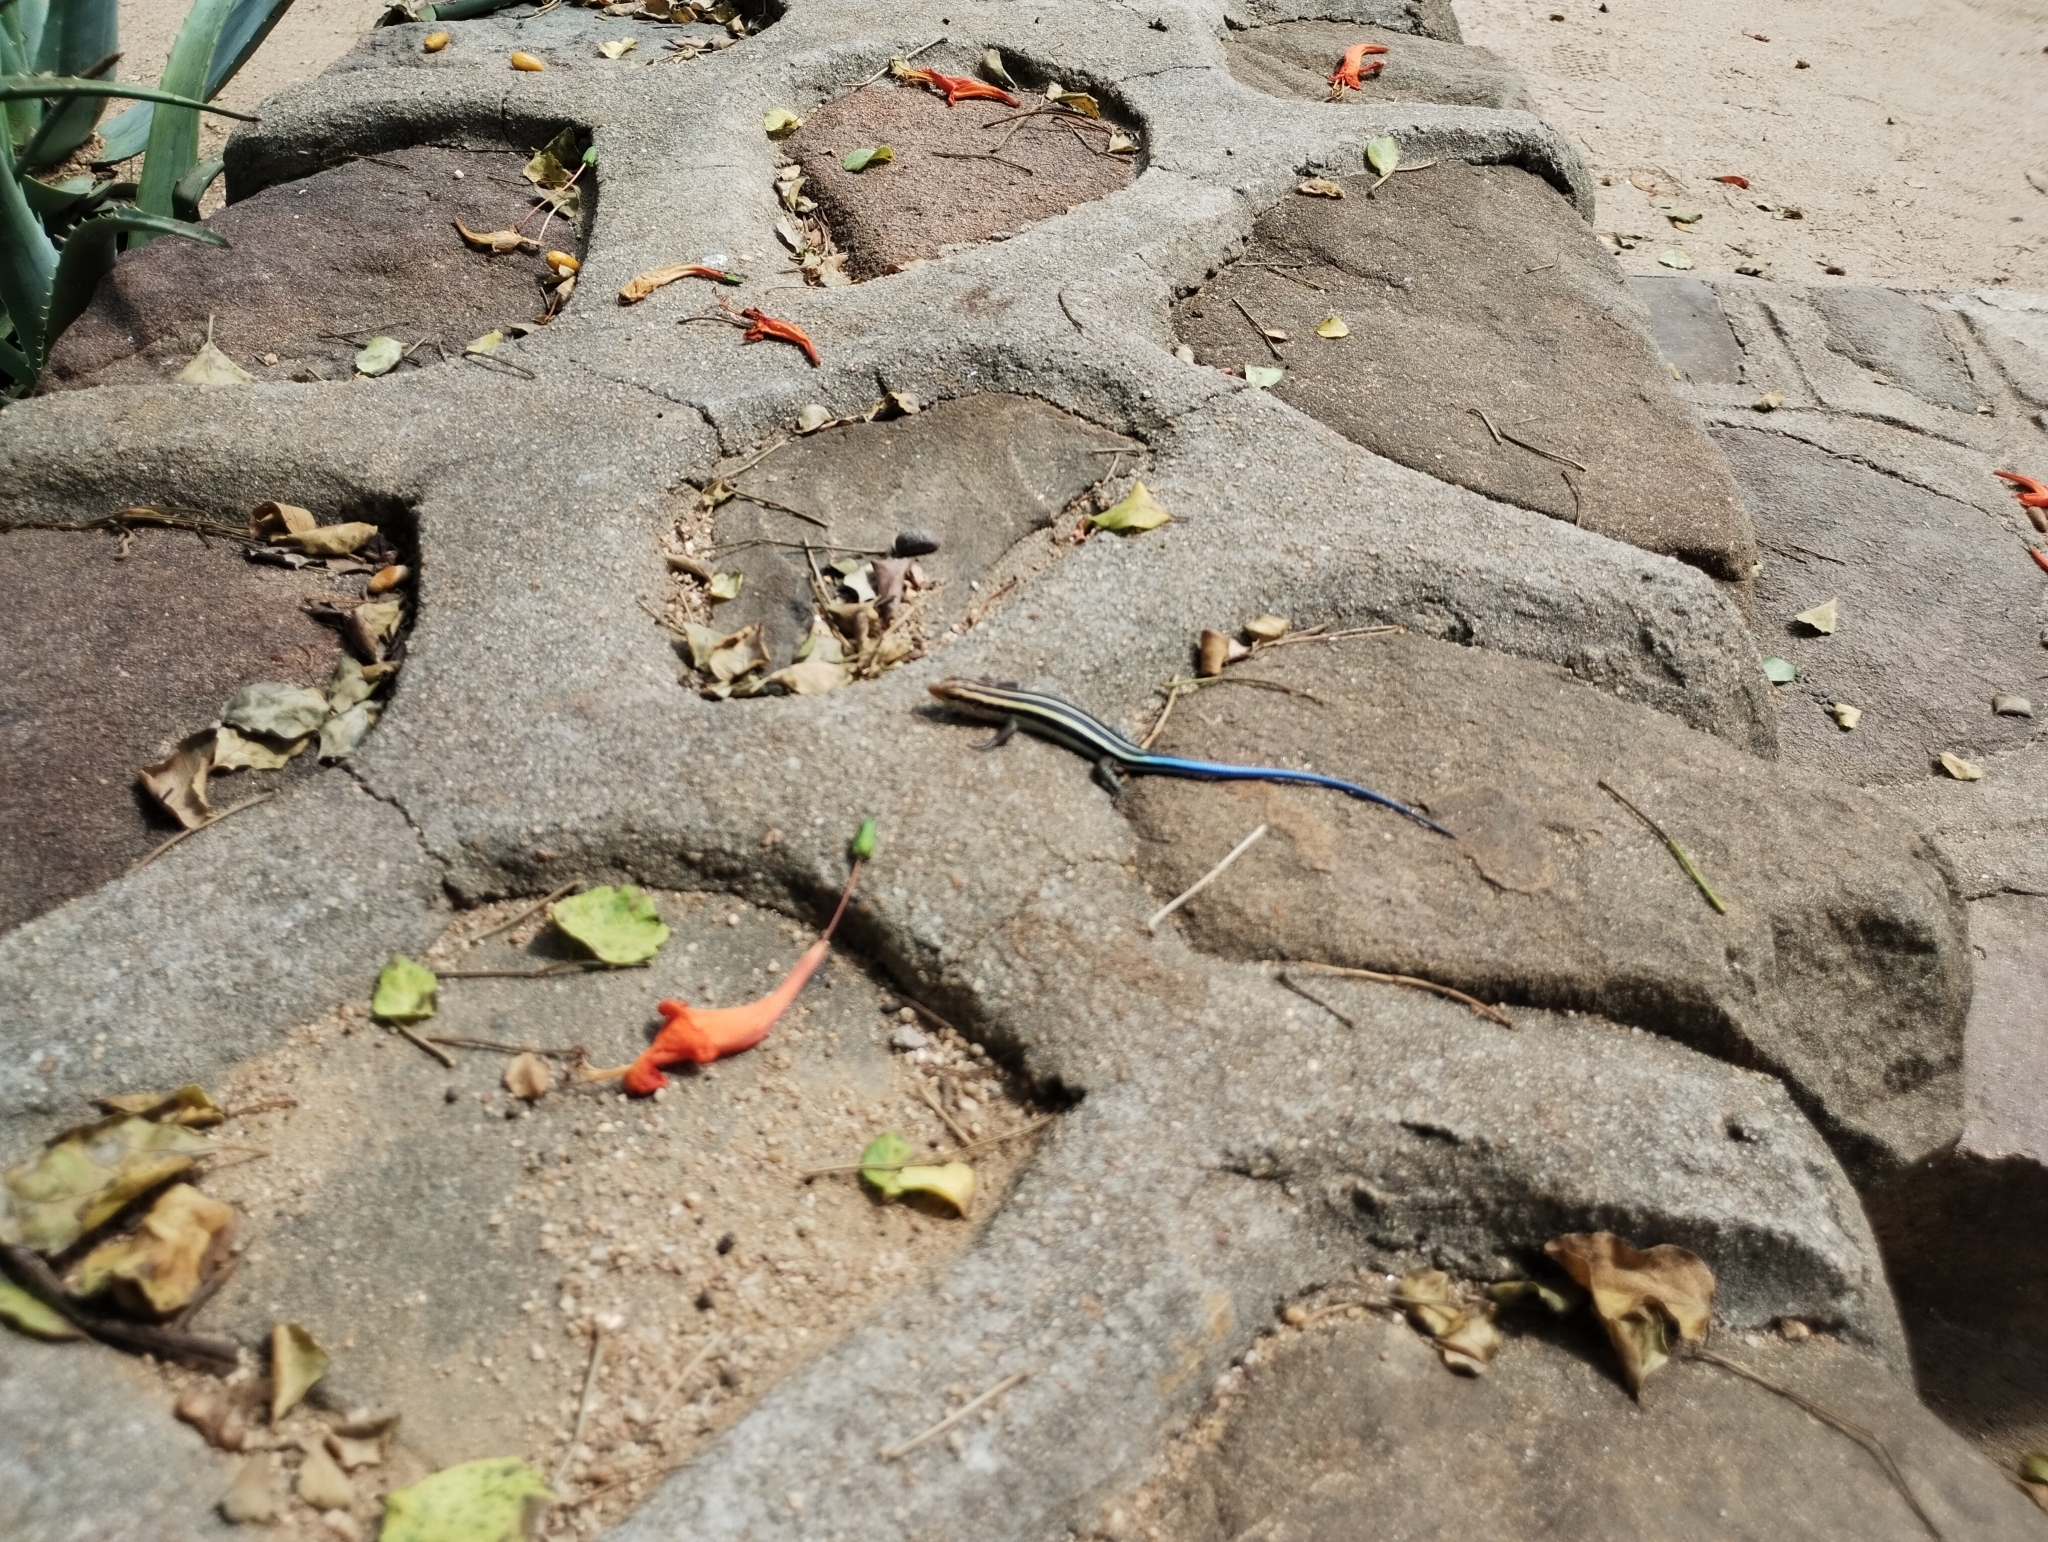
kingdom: Animalia
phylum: Chordata
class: Squamata
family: Scincidae
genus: Trachylepis
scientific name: Trachylepis margaritifera
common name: Rainbow skink
